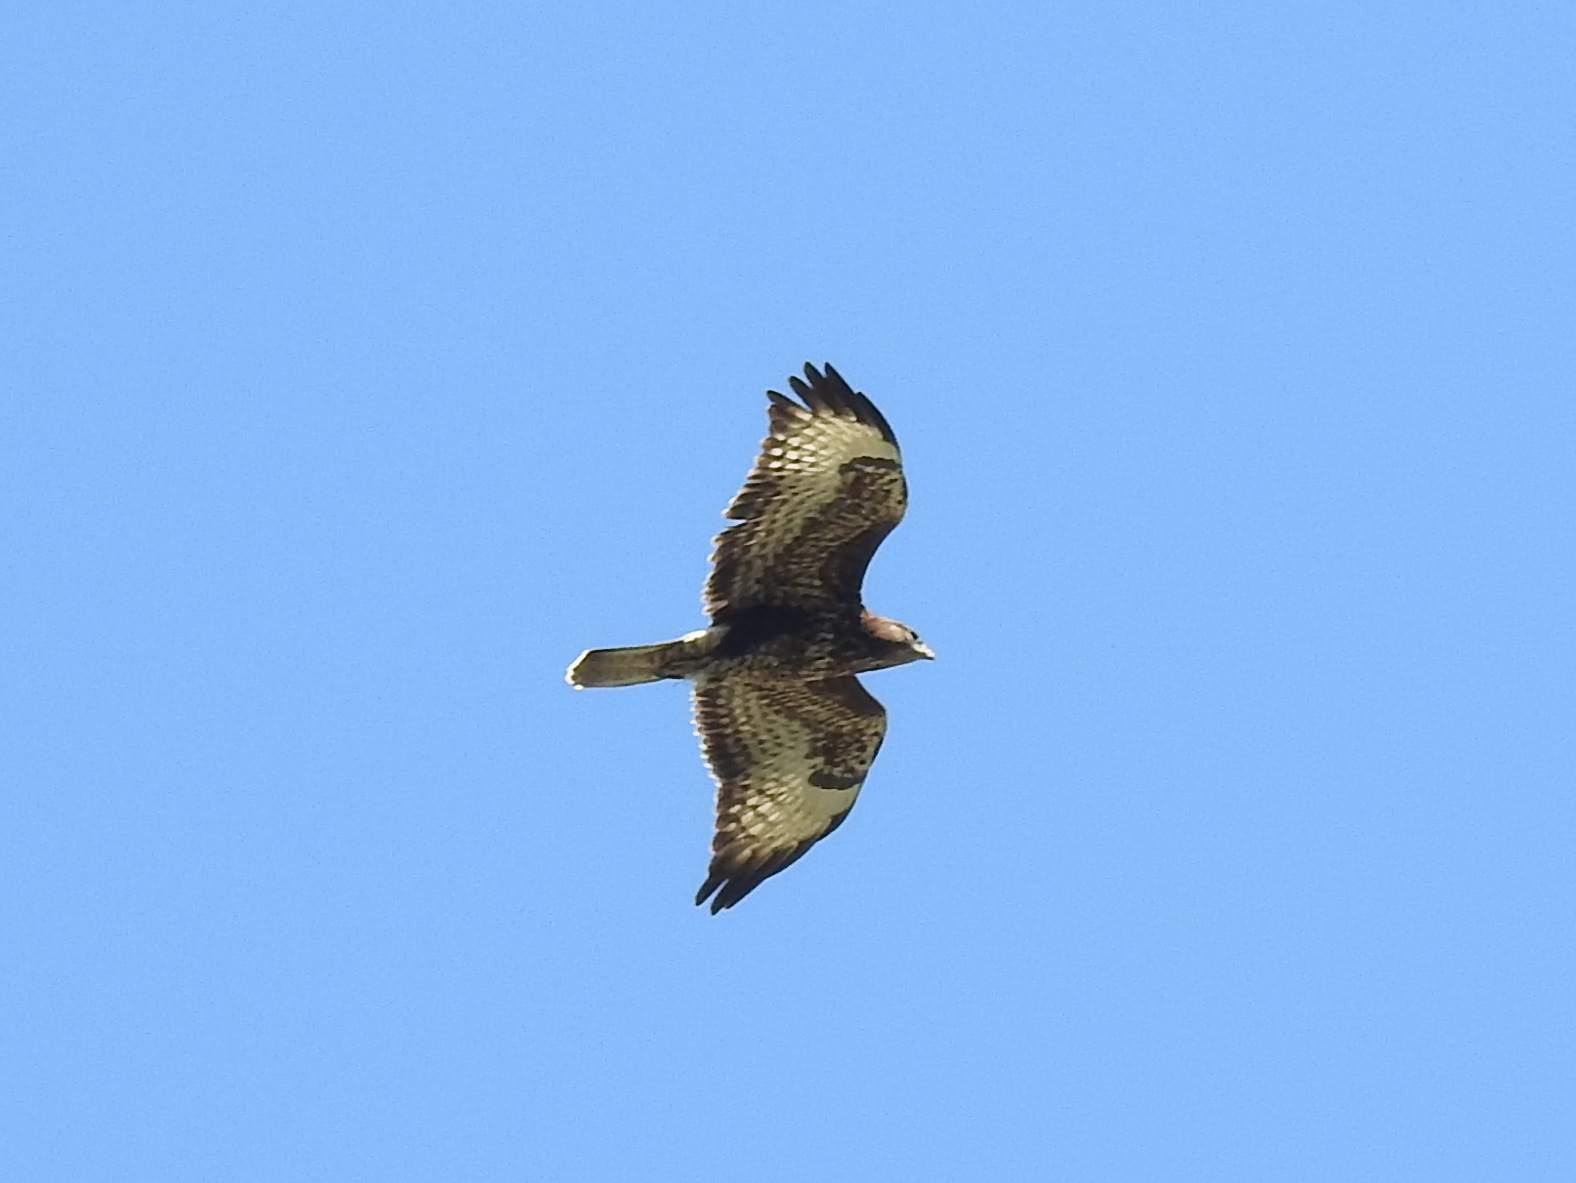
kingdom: Animalia
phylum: Chordata
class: Aves
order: Accipitriformes
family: Accipitridae
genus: Buteo
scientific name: Buteo buteo
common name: Common buzzard
